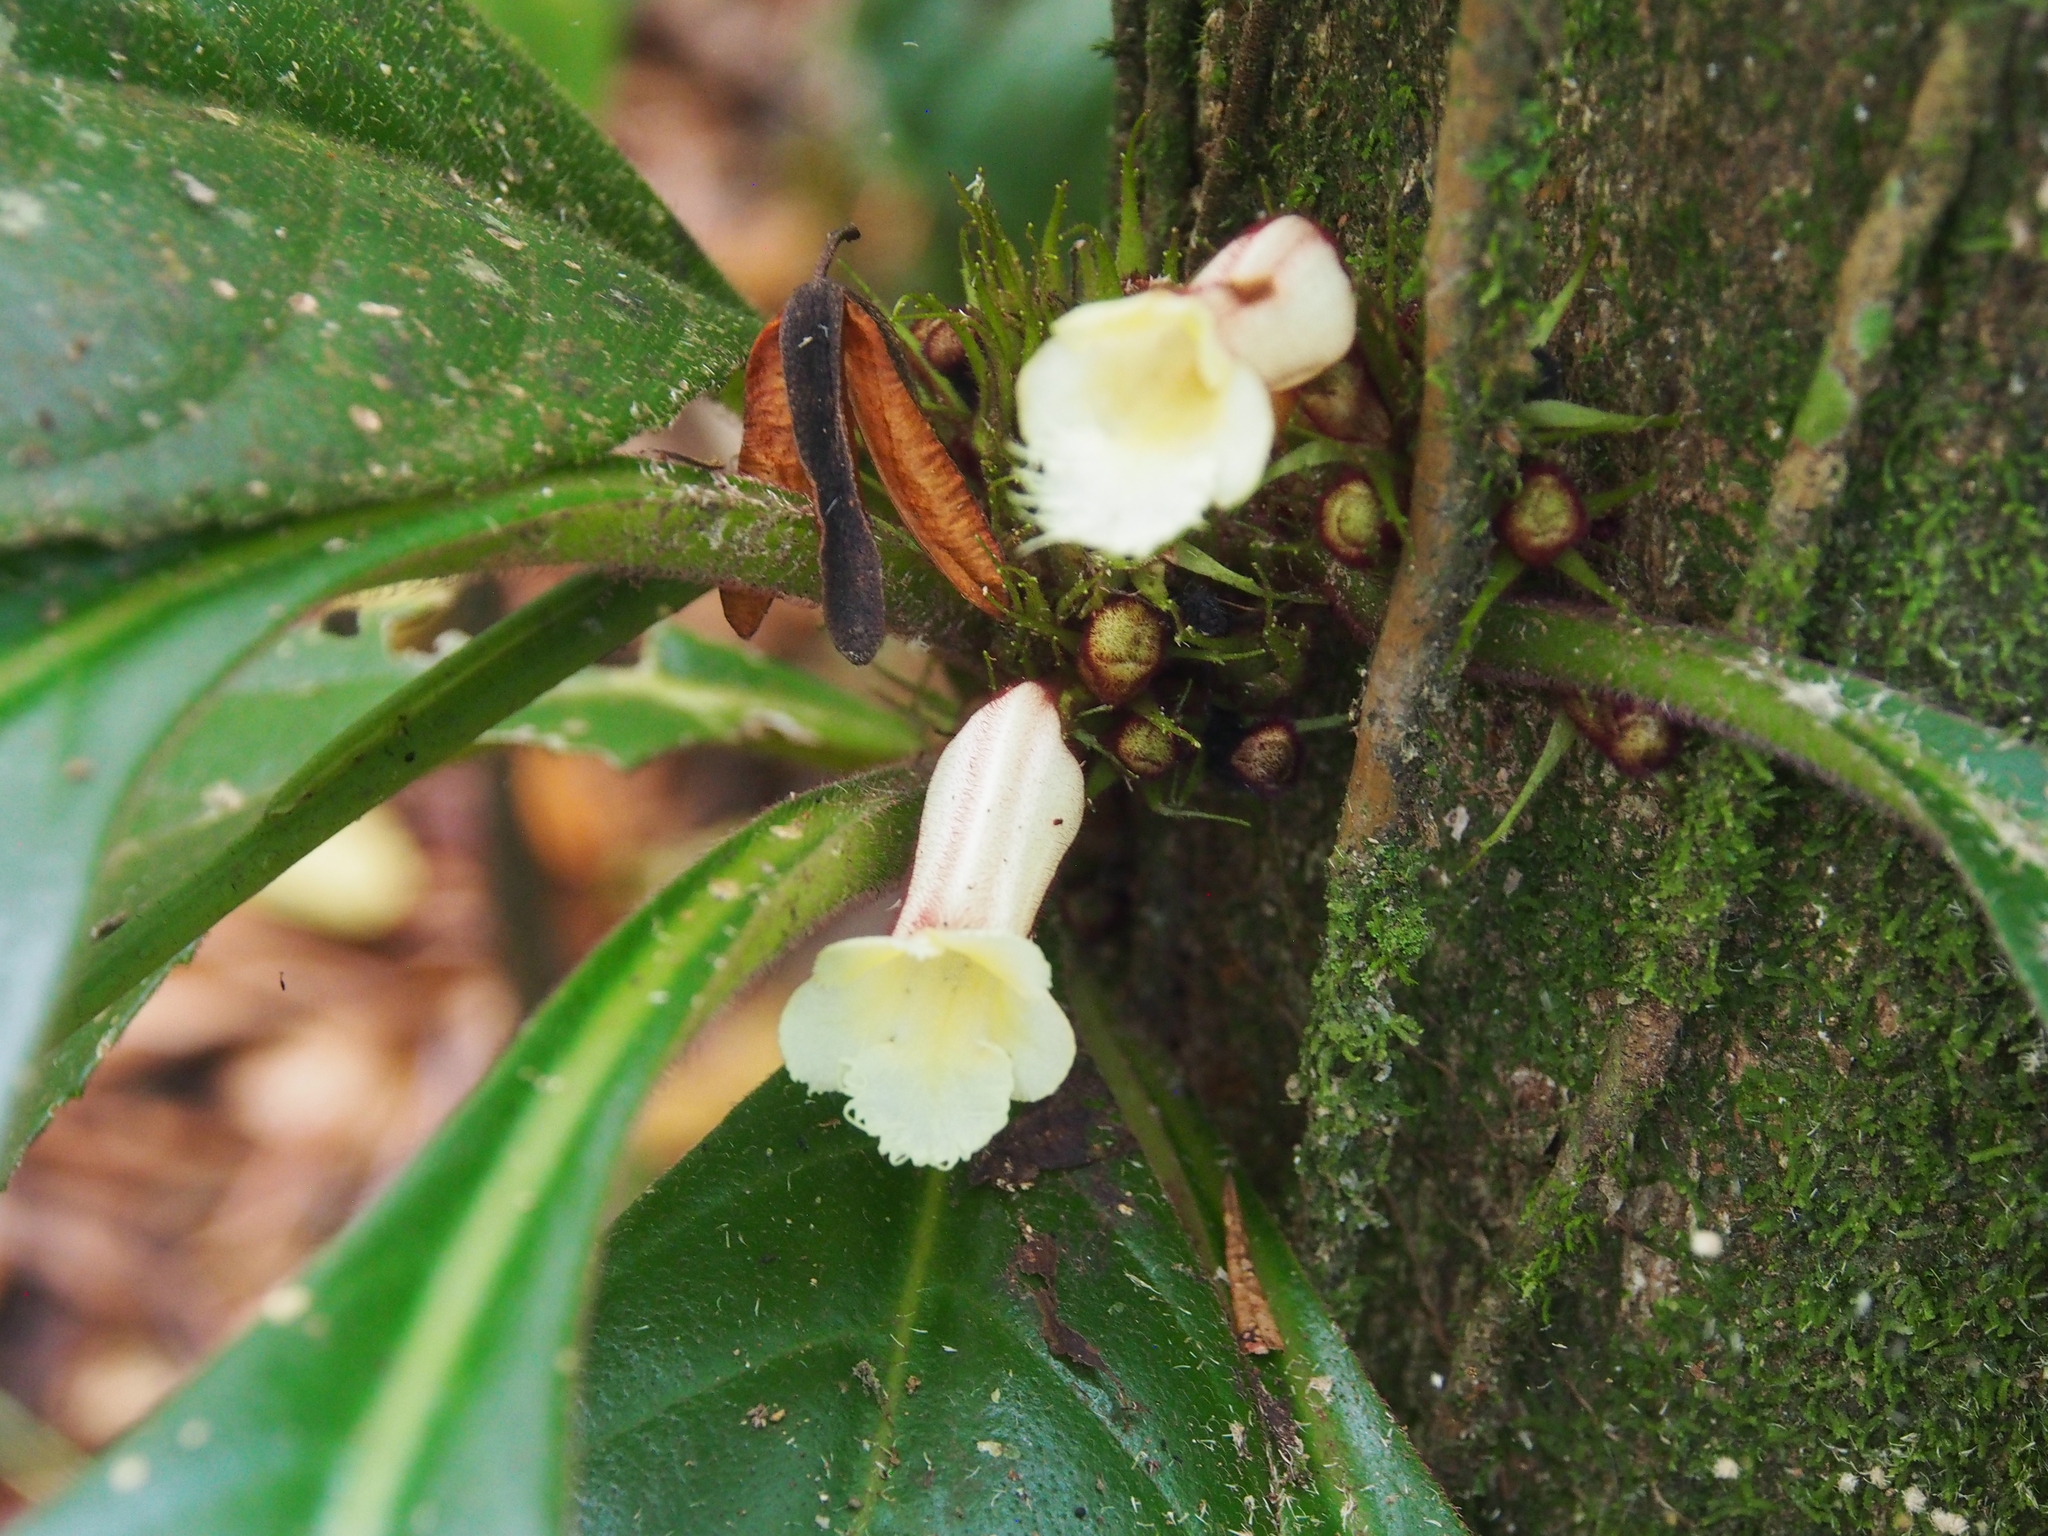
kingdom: Plantae
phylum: Tracheophyta
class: Magnoliopsida
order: Lamiales
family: Gesneriaceae
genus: Paradrymonia
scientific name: Paradrymonia ciliosa
